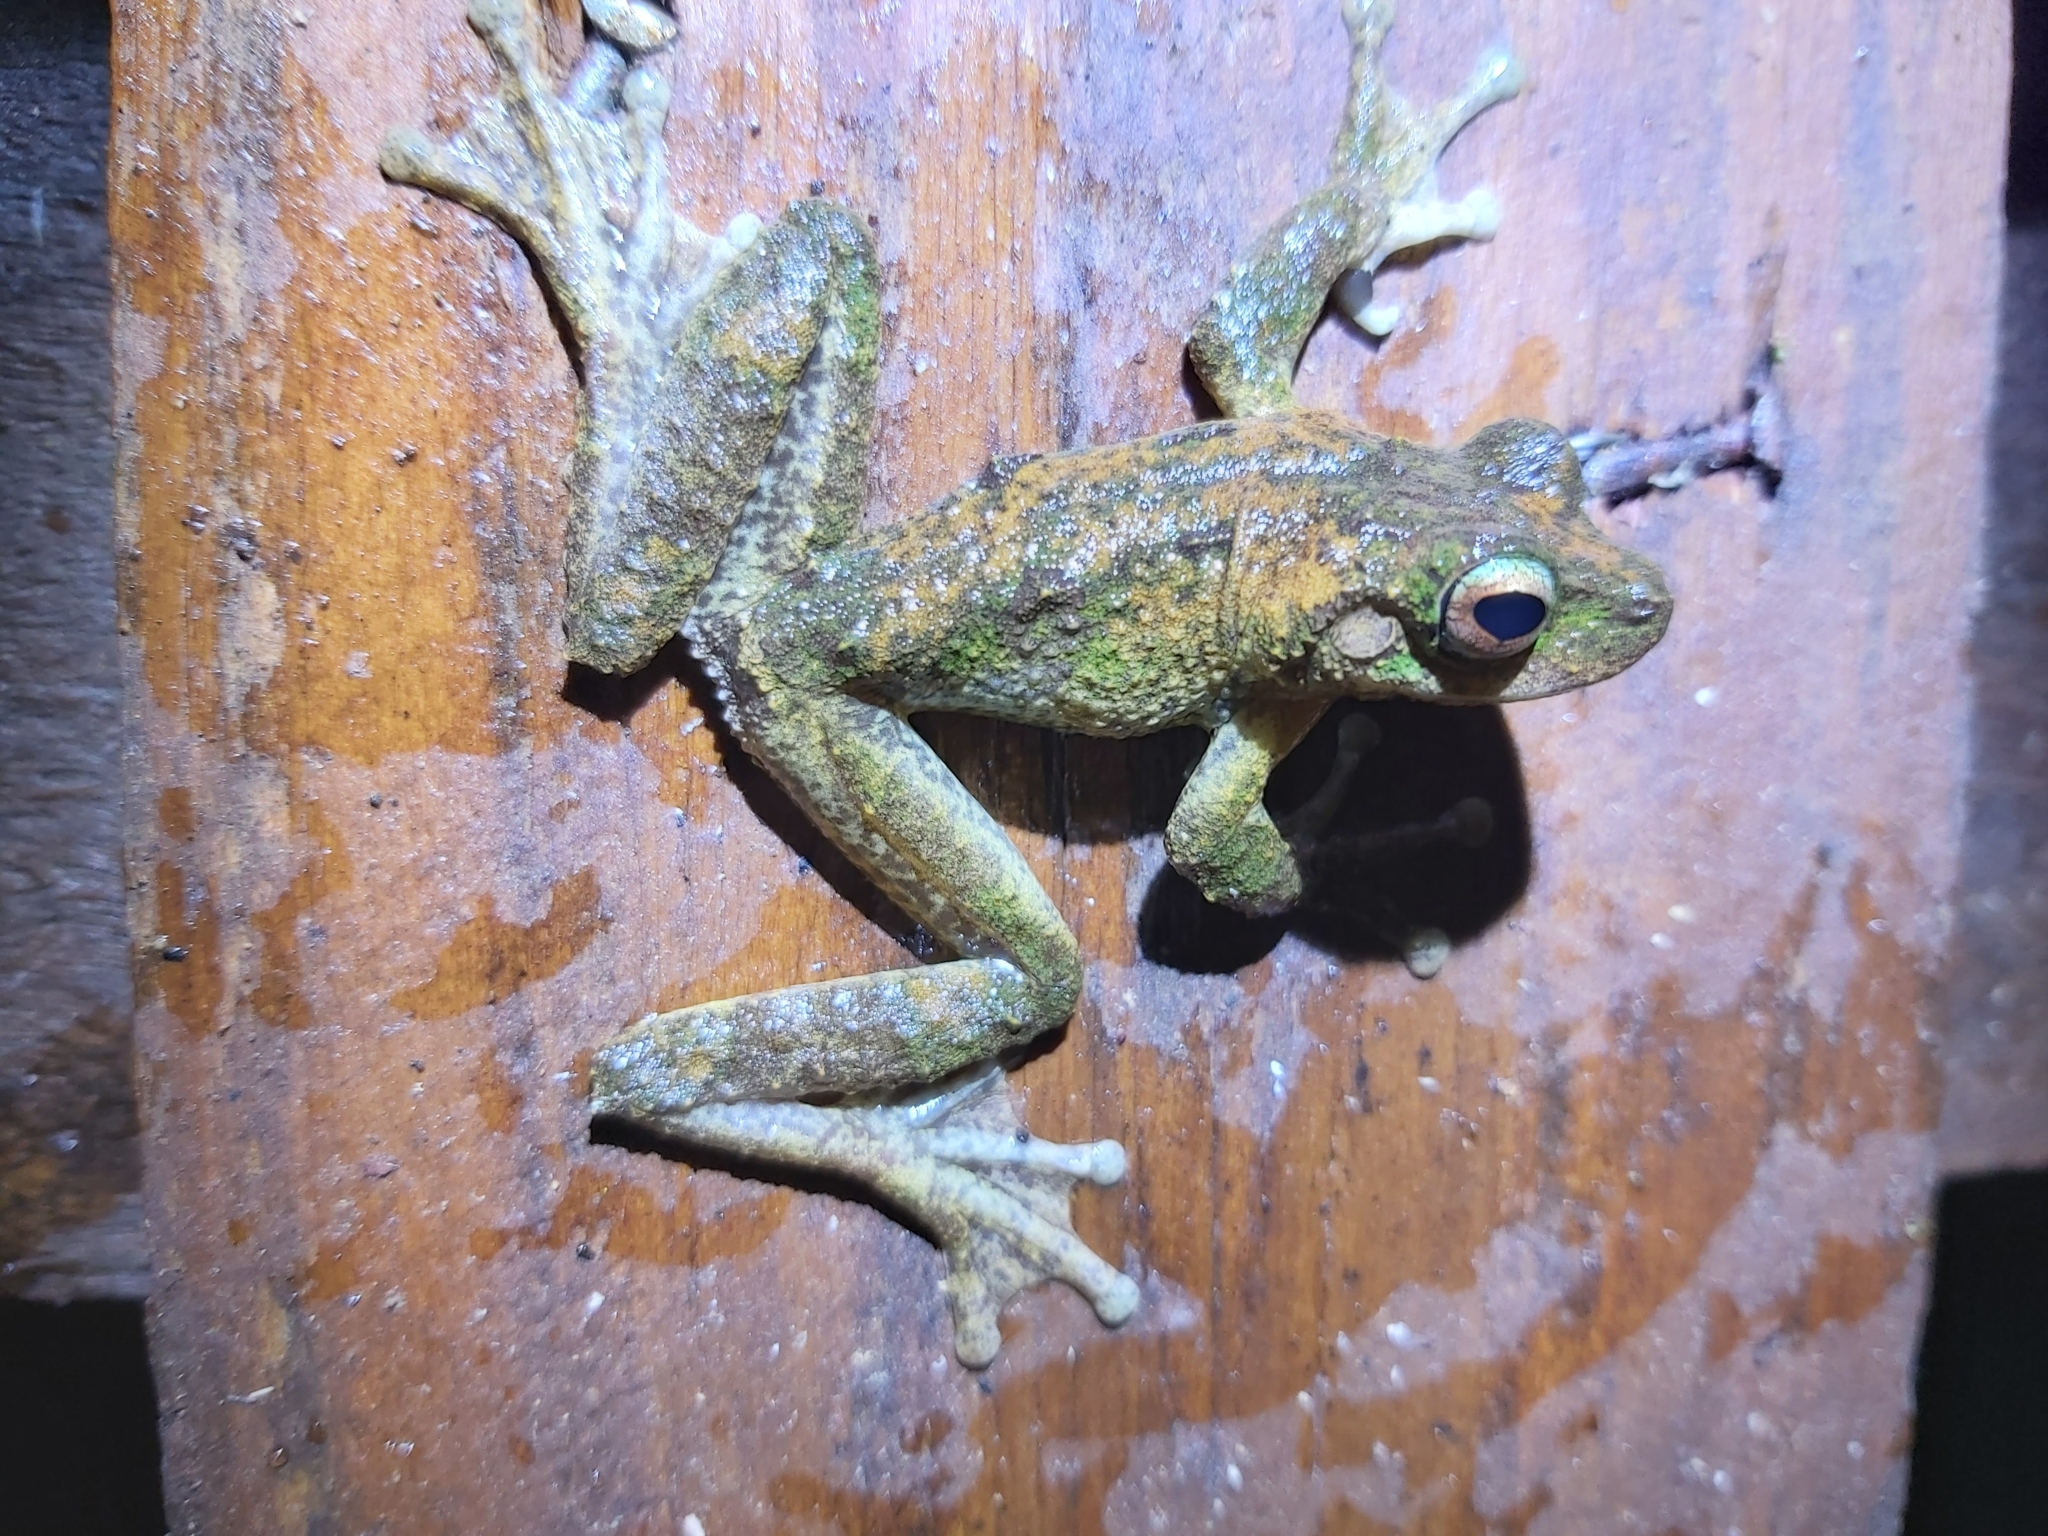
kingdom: Animalia
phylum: Chordata
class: Amphibia
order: Anura
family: Pelodryadidae
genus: Ranoidea
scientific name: Ranoidea serrata
